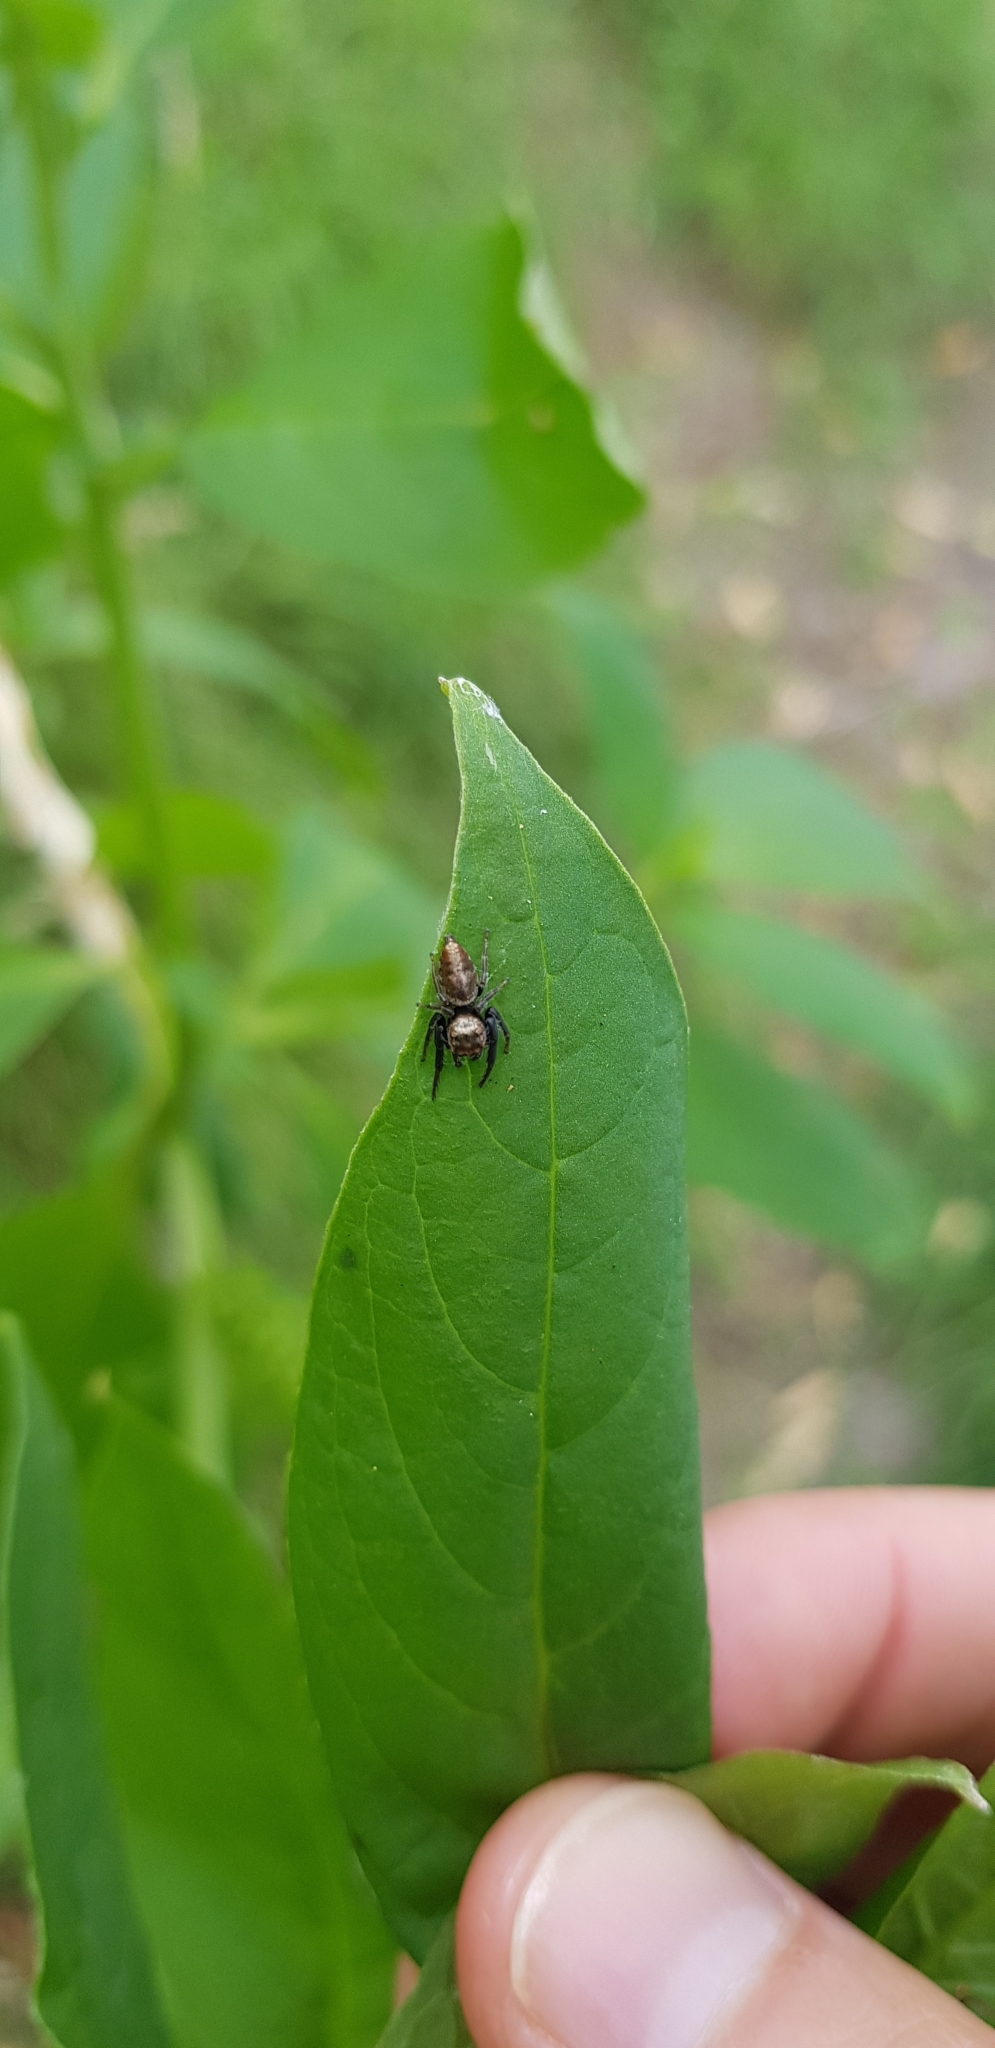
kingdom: Animalia
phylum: Arthropoda
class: Arachnida
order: Araneae
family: Salticidae
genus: Opisthoncus
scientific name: Opisthoncus polyphemus
